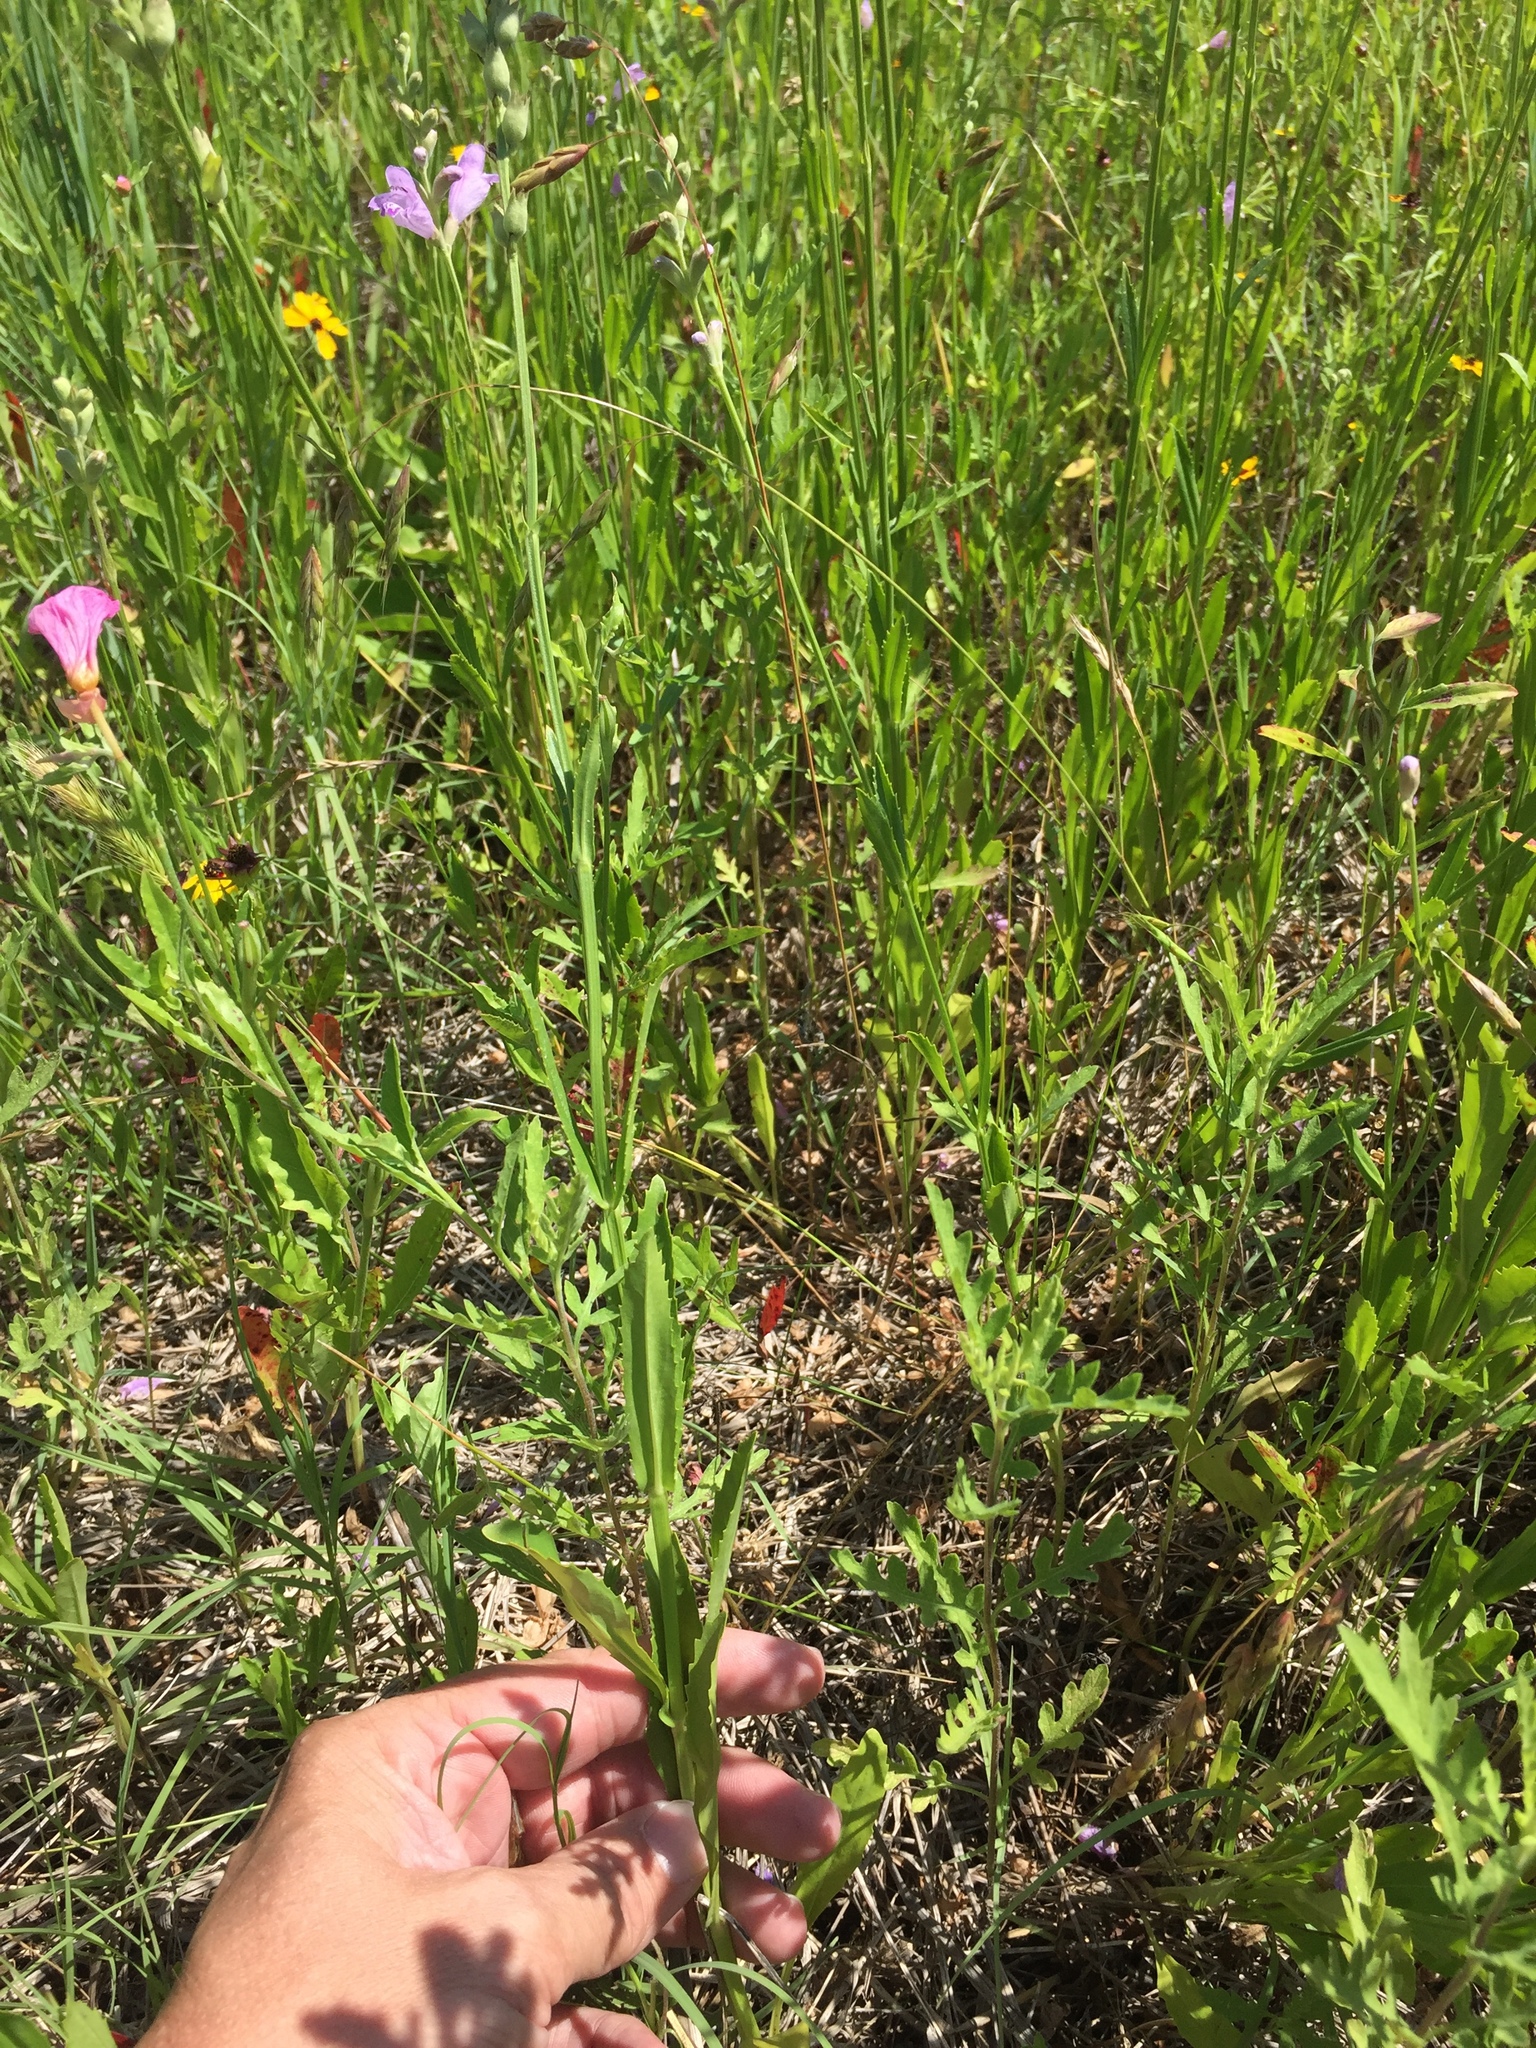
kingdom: Plantae
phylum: Tracheophyta
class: Magnoliopsida
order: Lamiales
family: Lamiaceae
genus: Physostegia
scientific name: Physostegia virginiana
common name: Obedient-plant
